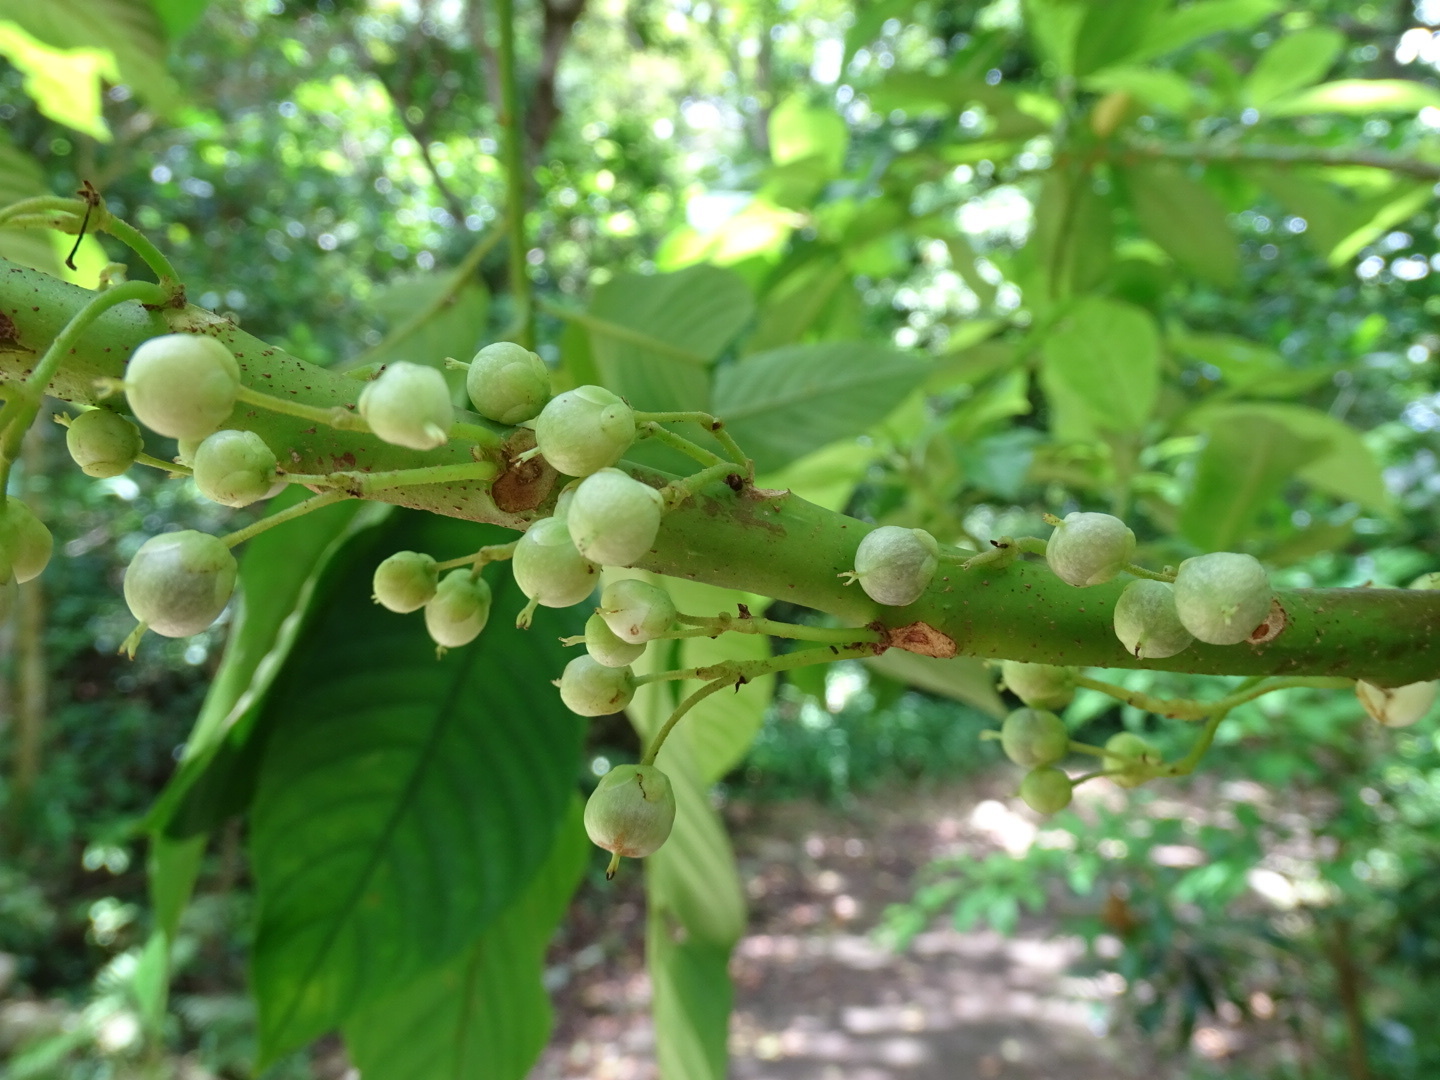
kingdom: Plantae
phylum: Tracheophyta
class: Magnoliopsida
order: Ericales
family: Actinidiaceae
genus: Saurauia
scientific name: Saurauia tristyla
